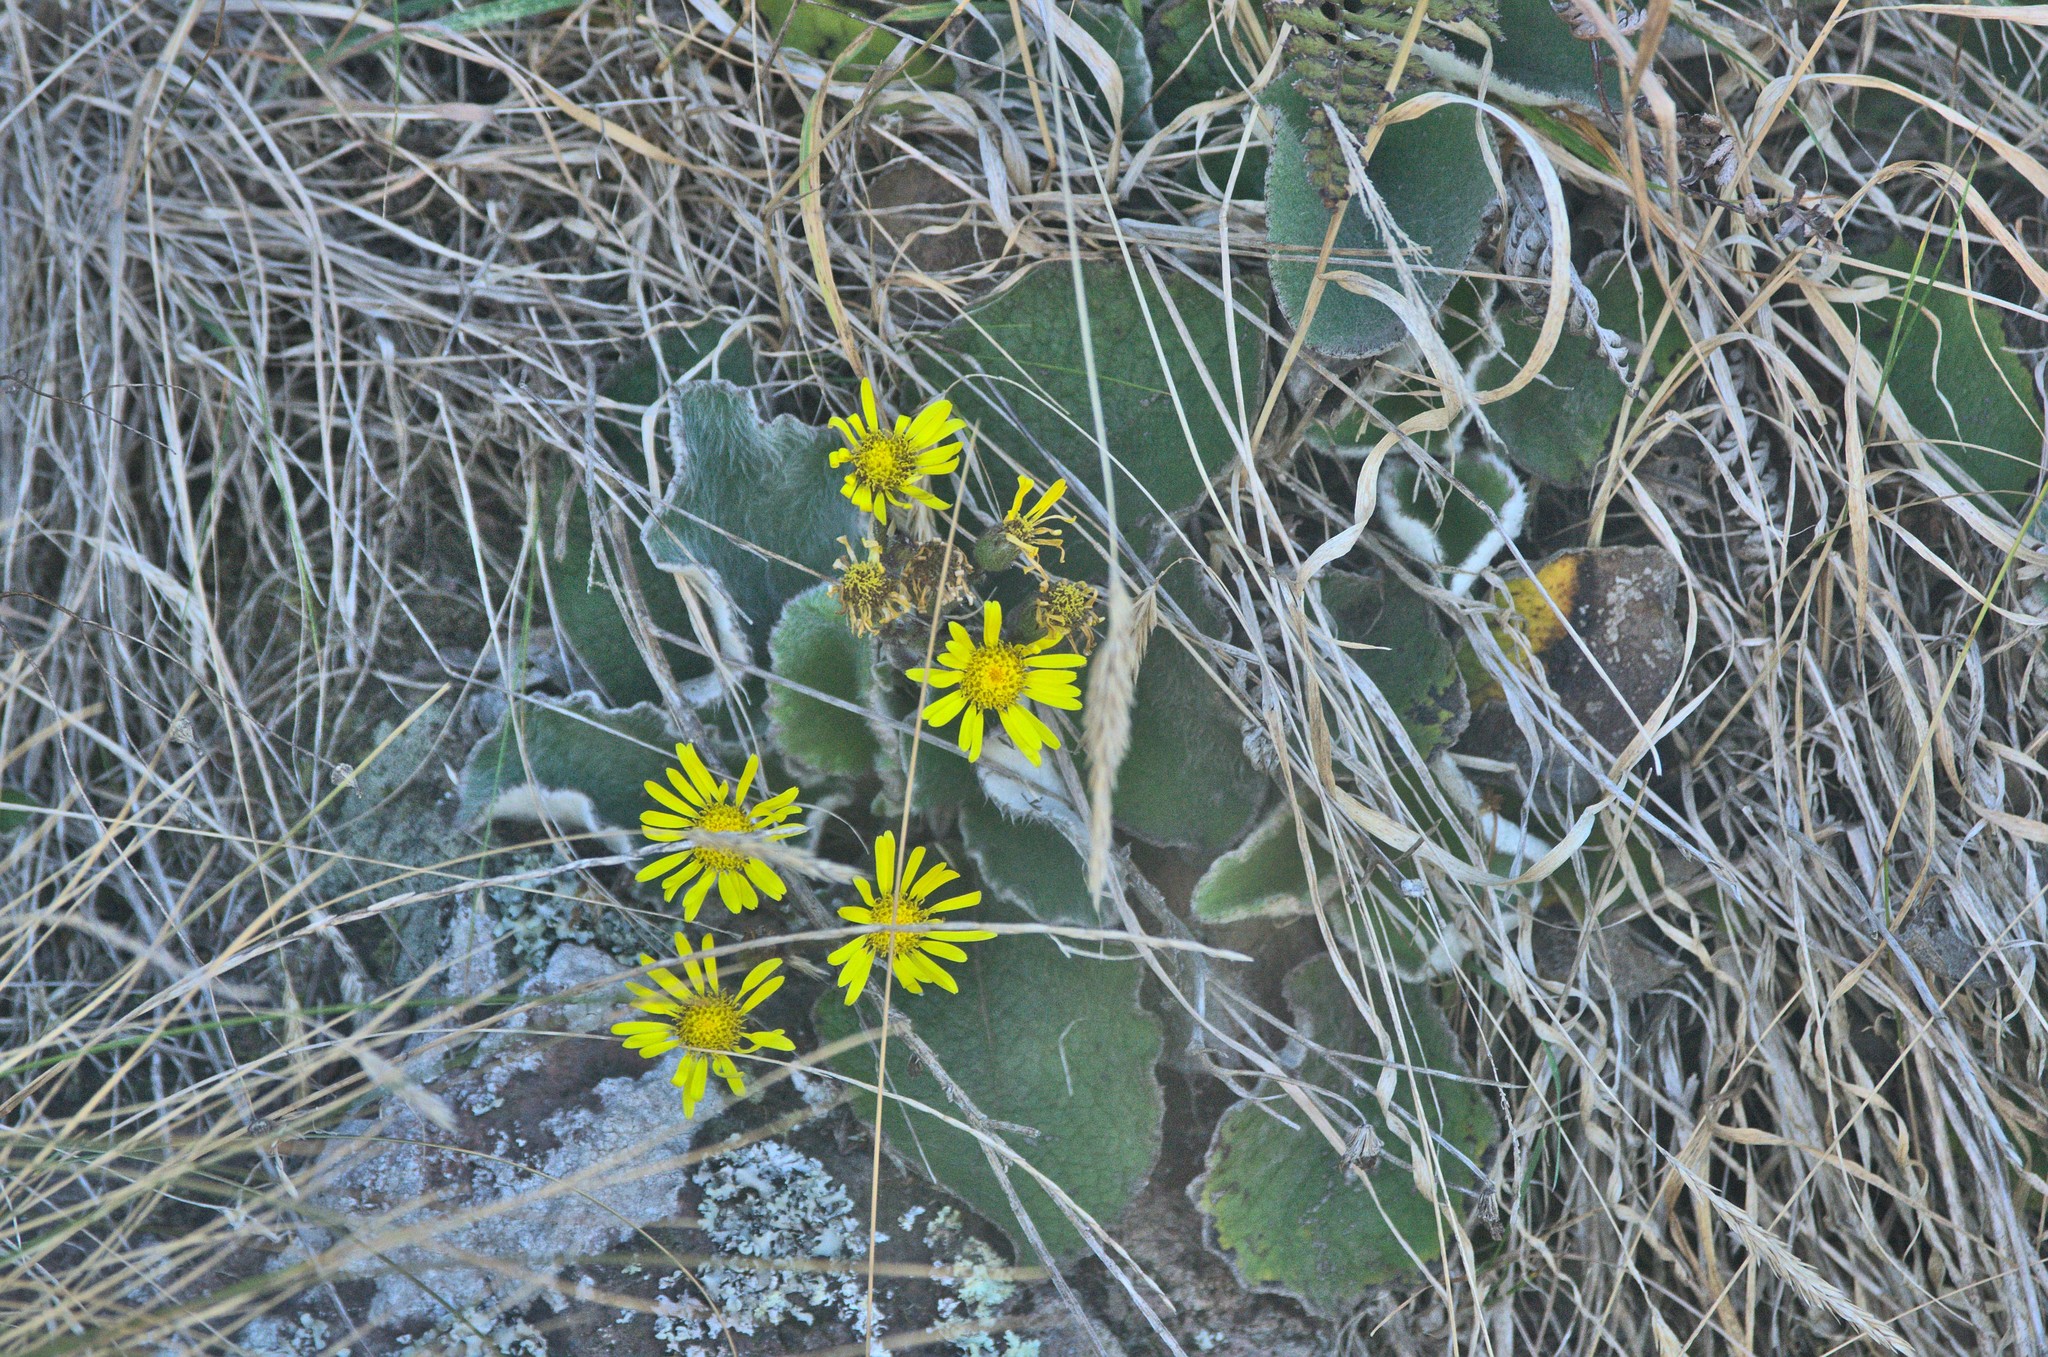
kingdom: Plantae
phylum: Tracheophyta
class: Magnoliopsida
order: Asterales
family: Asteraceae
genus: Brachyglottis
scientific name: Brachyglottis lagopus
